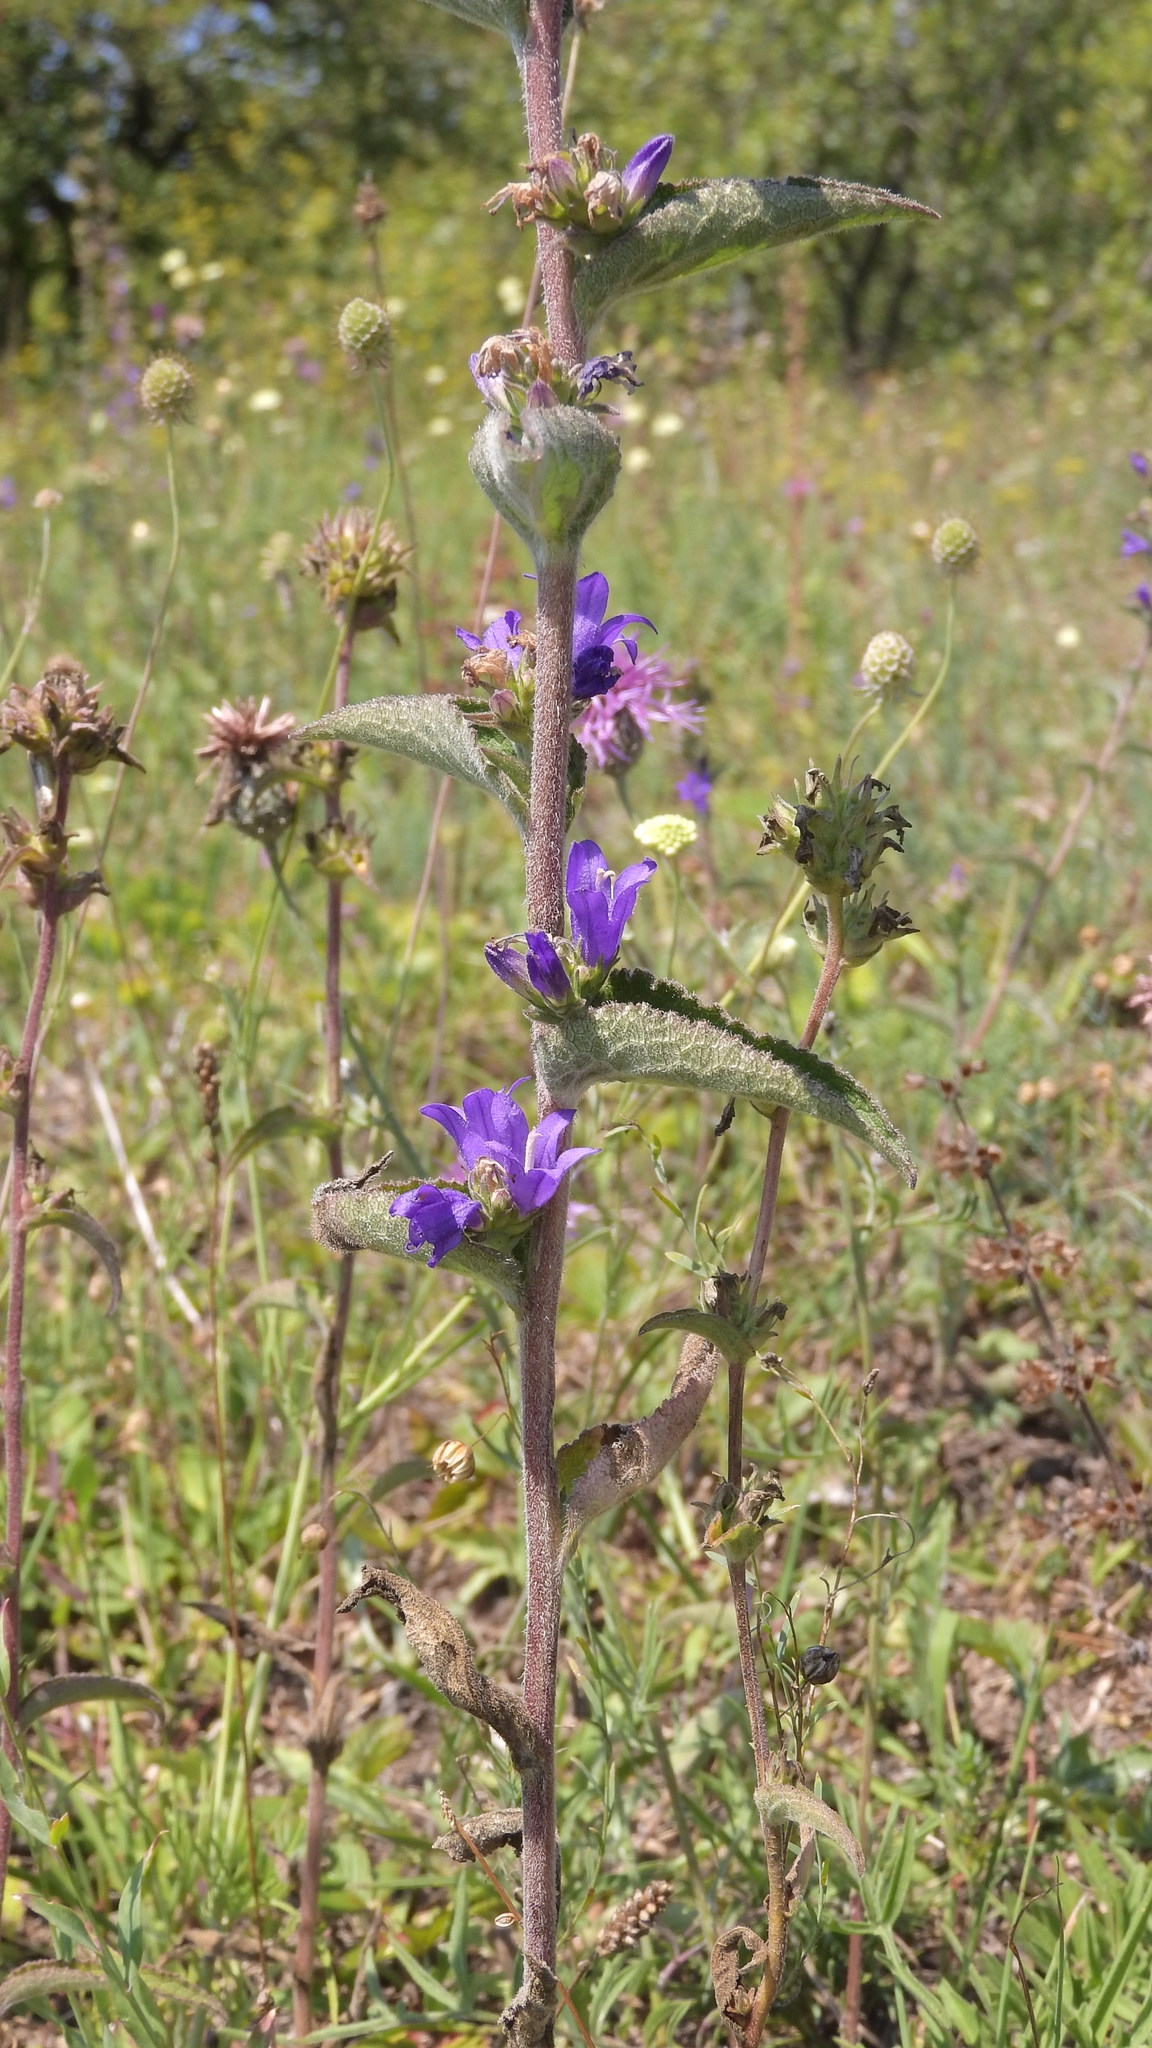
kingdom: Plantae
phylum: Tracheophyta
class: Magnoliopsida
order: Asterales
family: Campanulaceae
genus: Campanula
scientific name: Campanula glomerata
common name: Clustered bellflower
